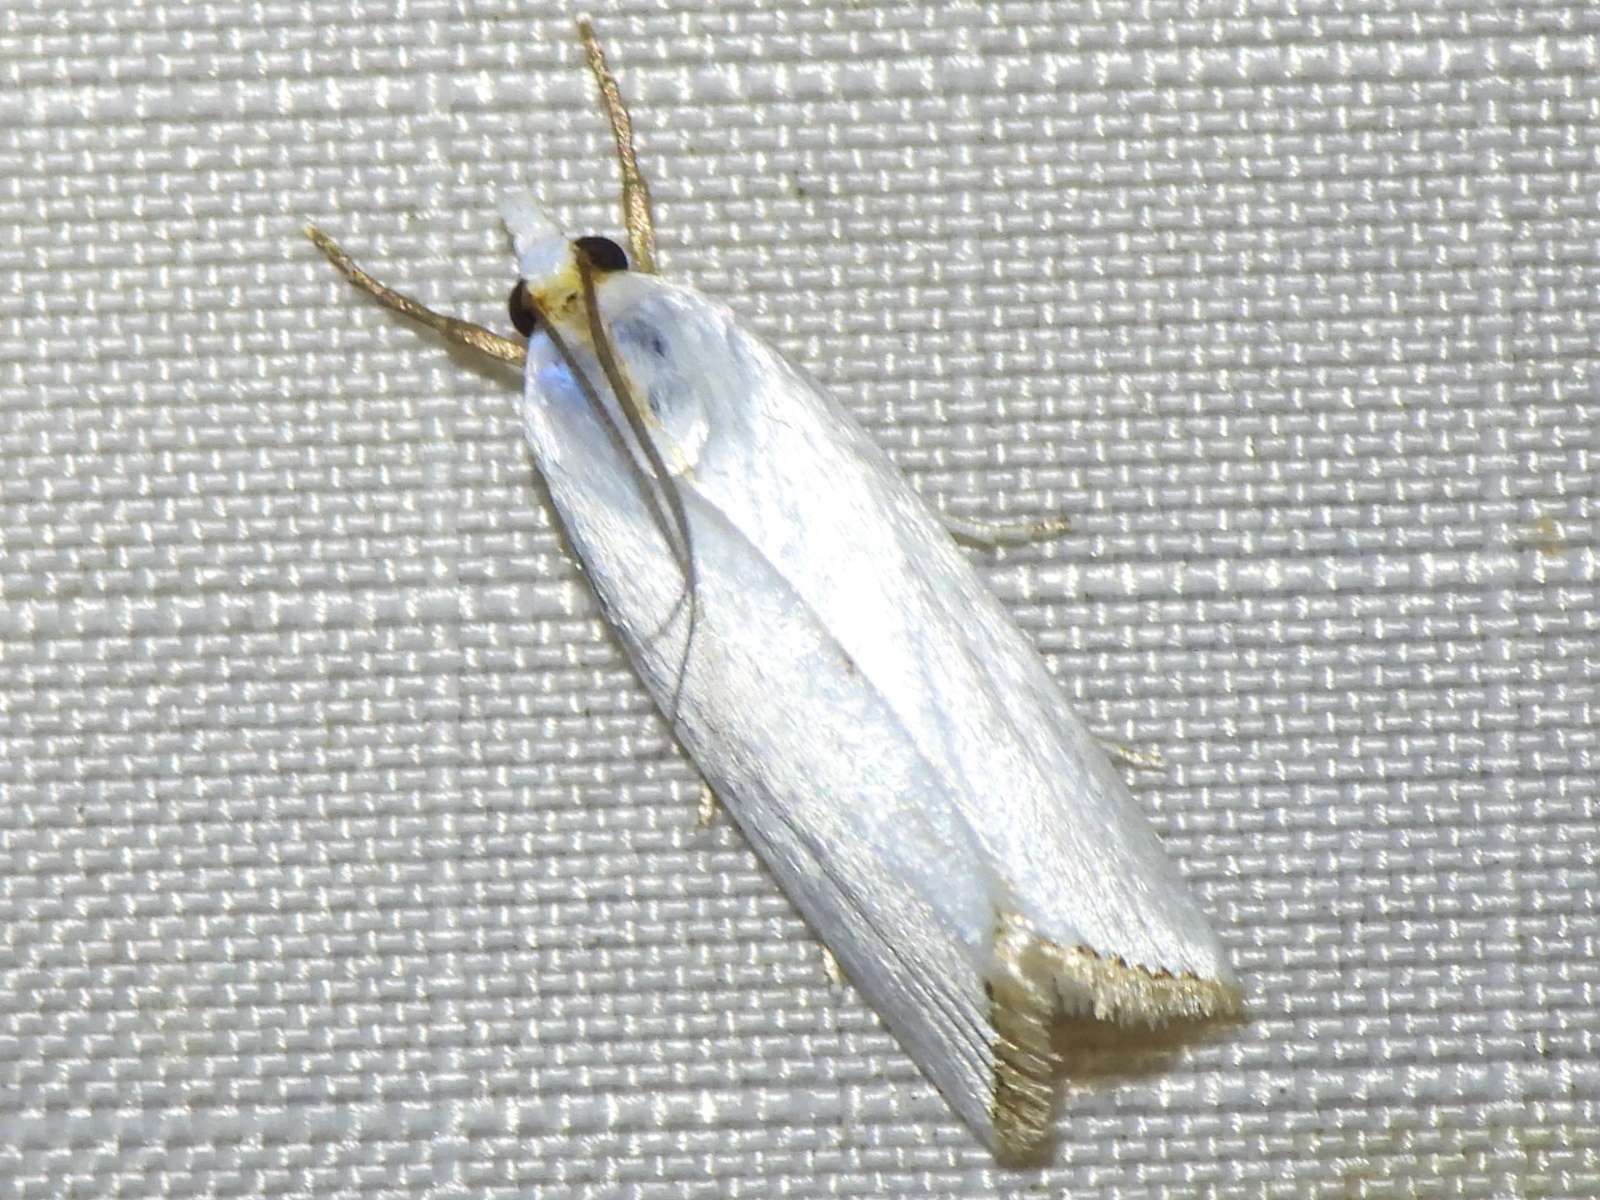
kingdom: Animalia
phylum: Arthropoda
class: Insecta
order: Lepidoptera
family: Crambidae
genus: Argyria
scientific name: Argyria nivalis
